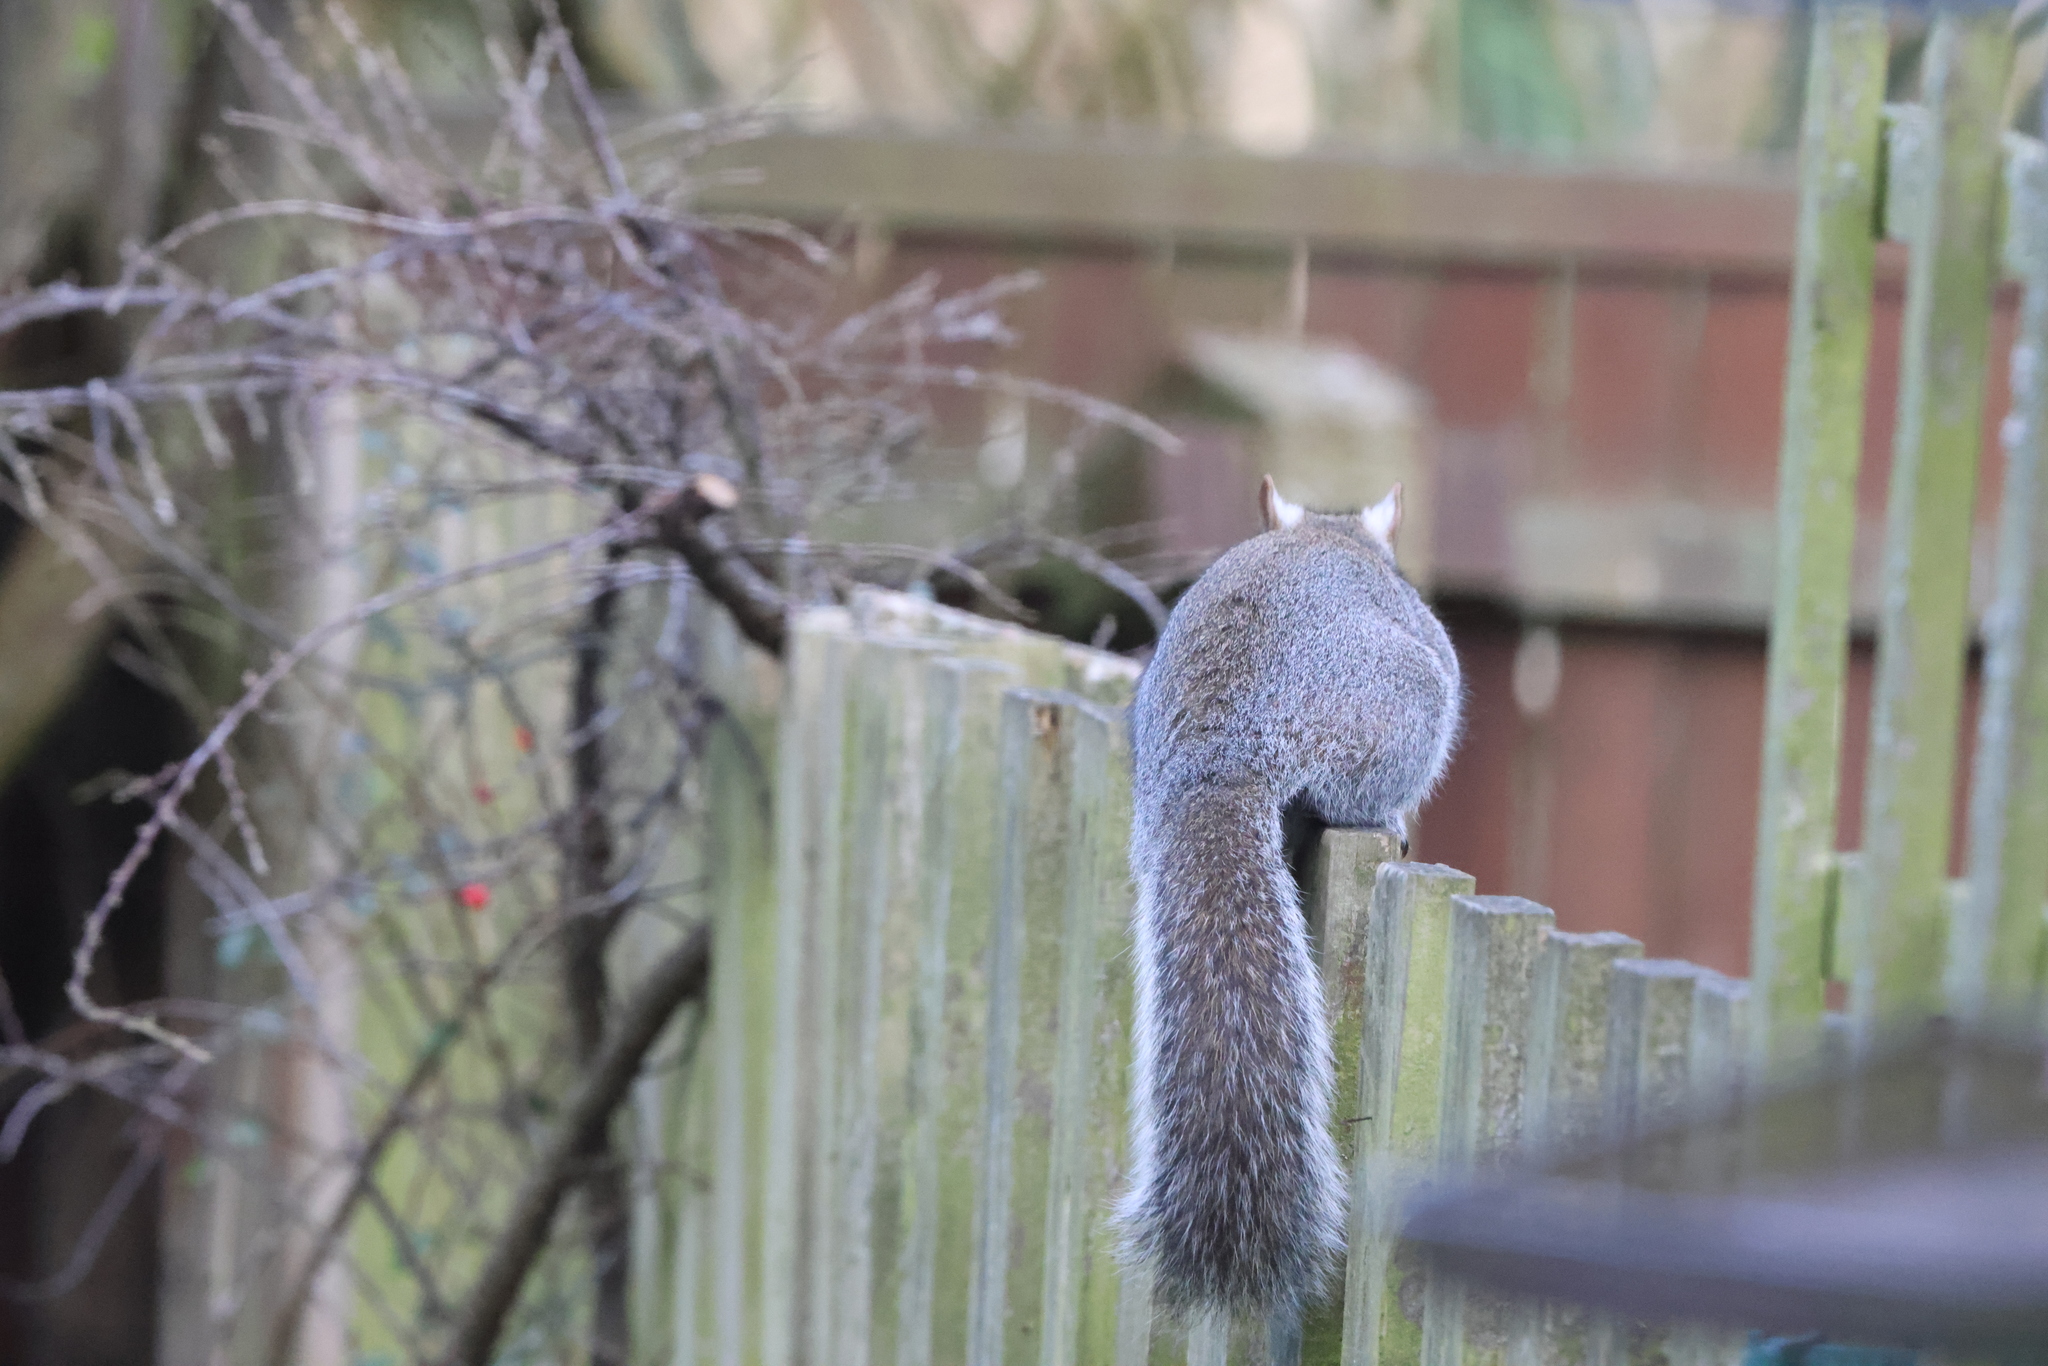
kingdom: Animalia
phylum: Chordata
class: Mammalia
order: Rodentia
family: Sciuridae
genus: Sciurus
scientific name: Sciurus carolinensis
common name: Eastern gray squirrel
